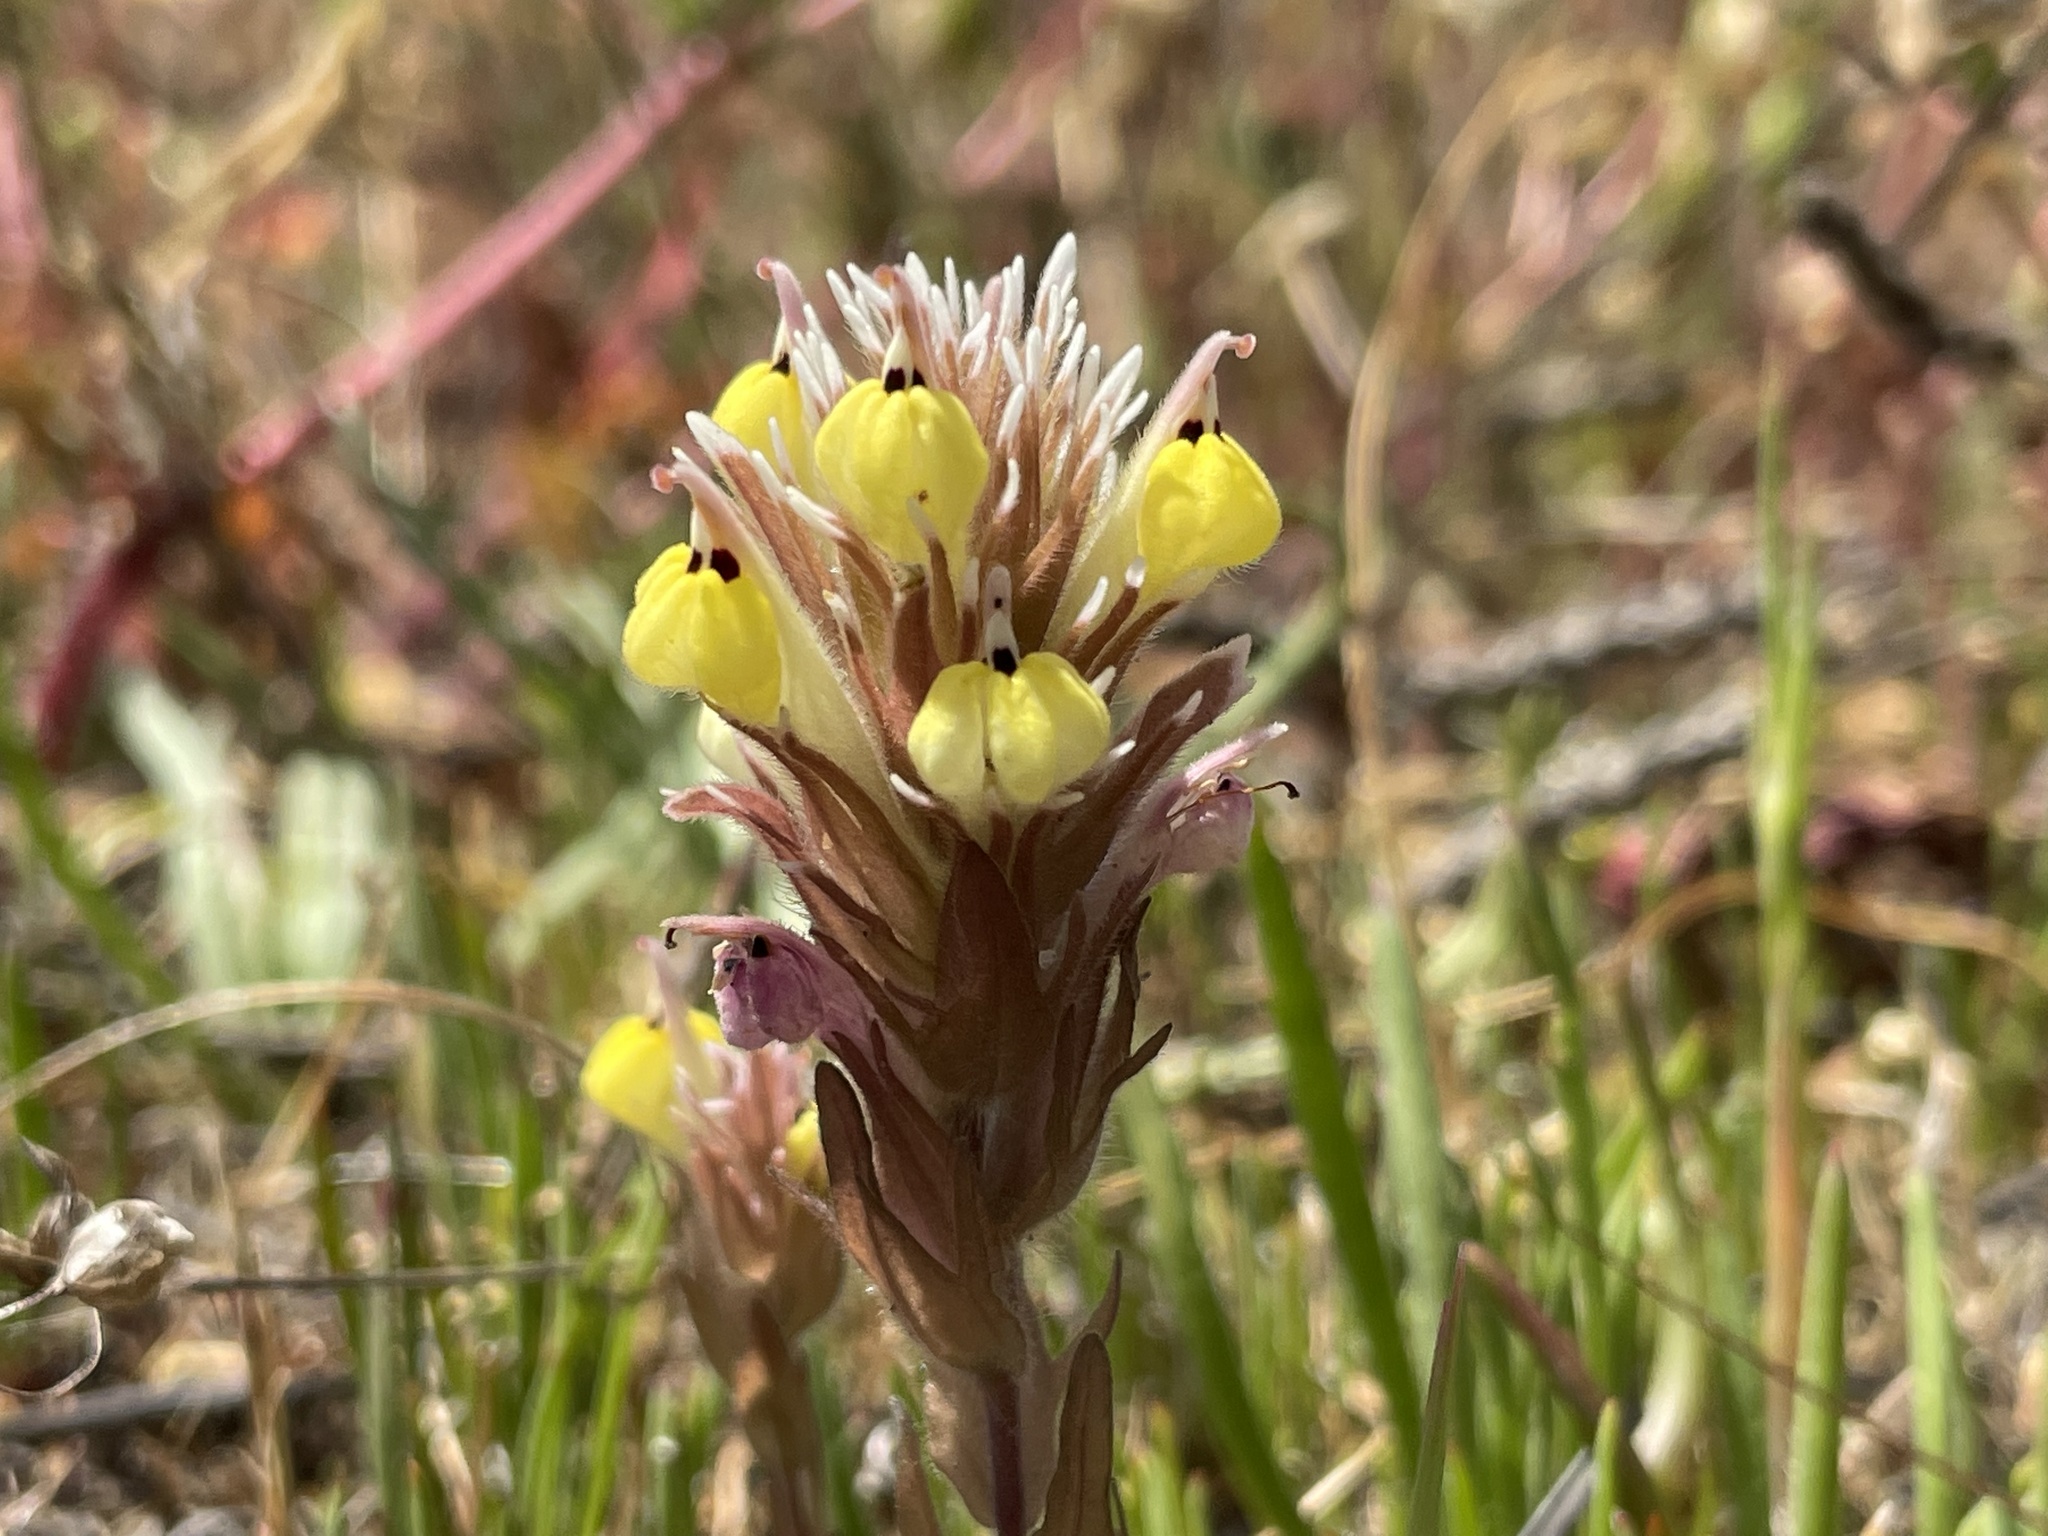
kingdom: Plantae
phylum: Tracheophyta
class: Magnoliopsida
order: Lamiales
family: Orobanchaceae
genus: Castilleja
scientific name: Castilleja ambigua
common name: Johnny-nip
